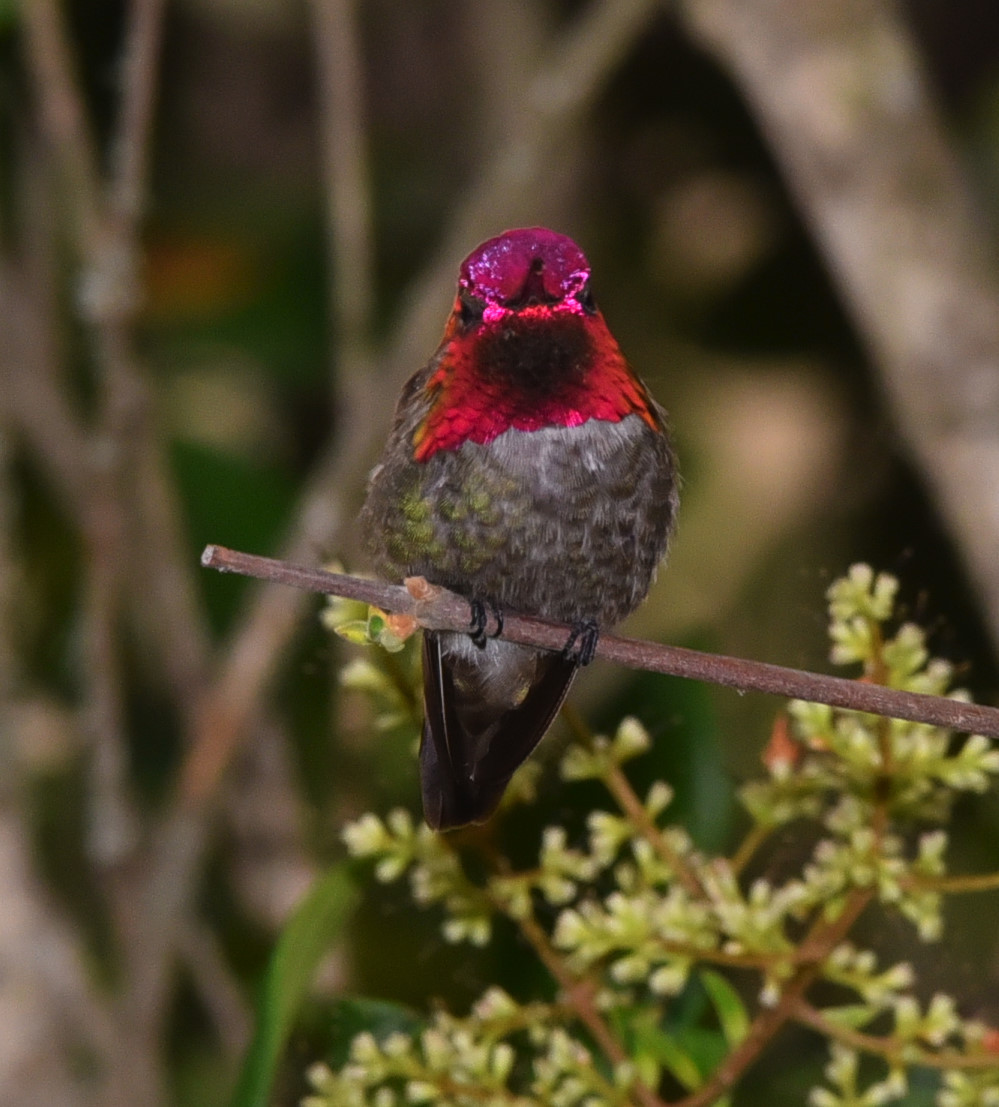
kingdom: Animalia
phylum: Chordata
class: Aves
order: Apodiformes
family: Trochilidae
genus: Calypte
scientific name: Calypte anna
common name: Anna's hummingbird
